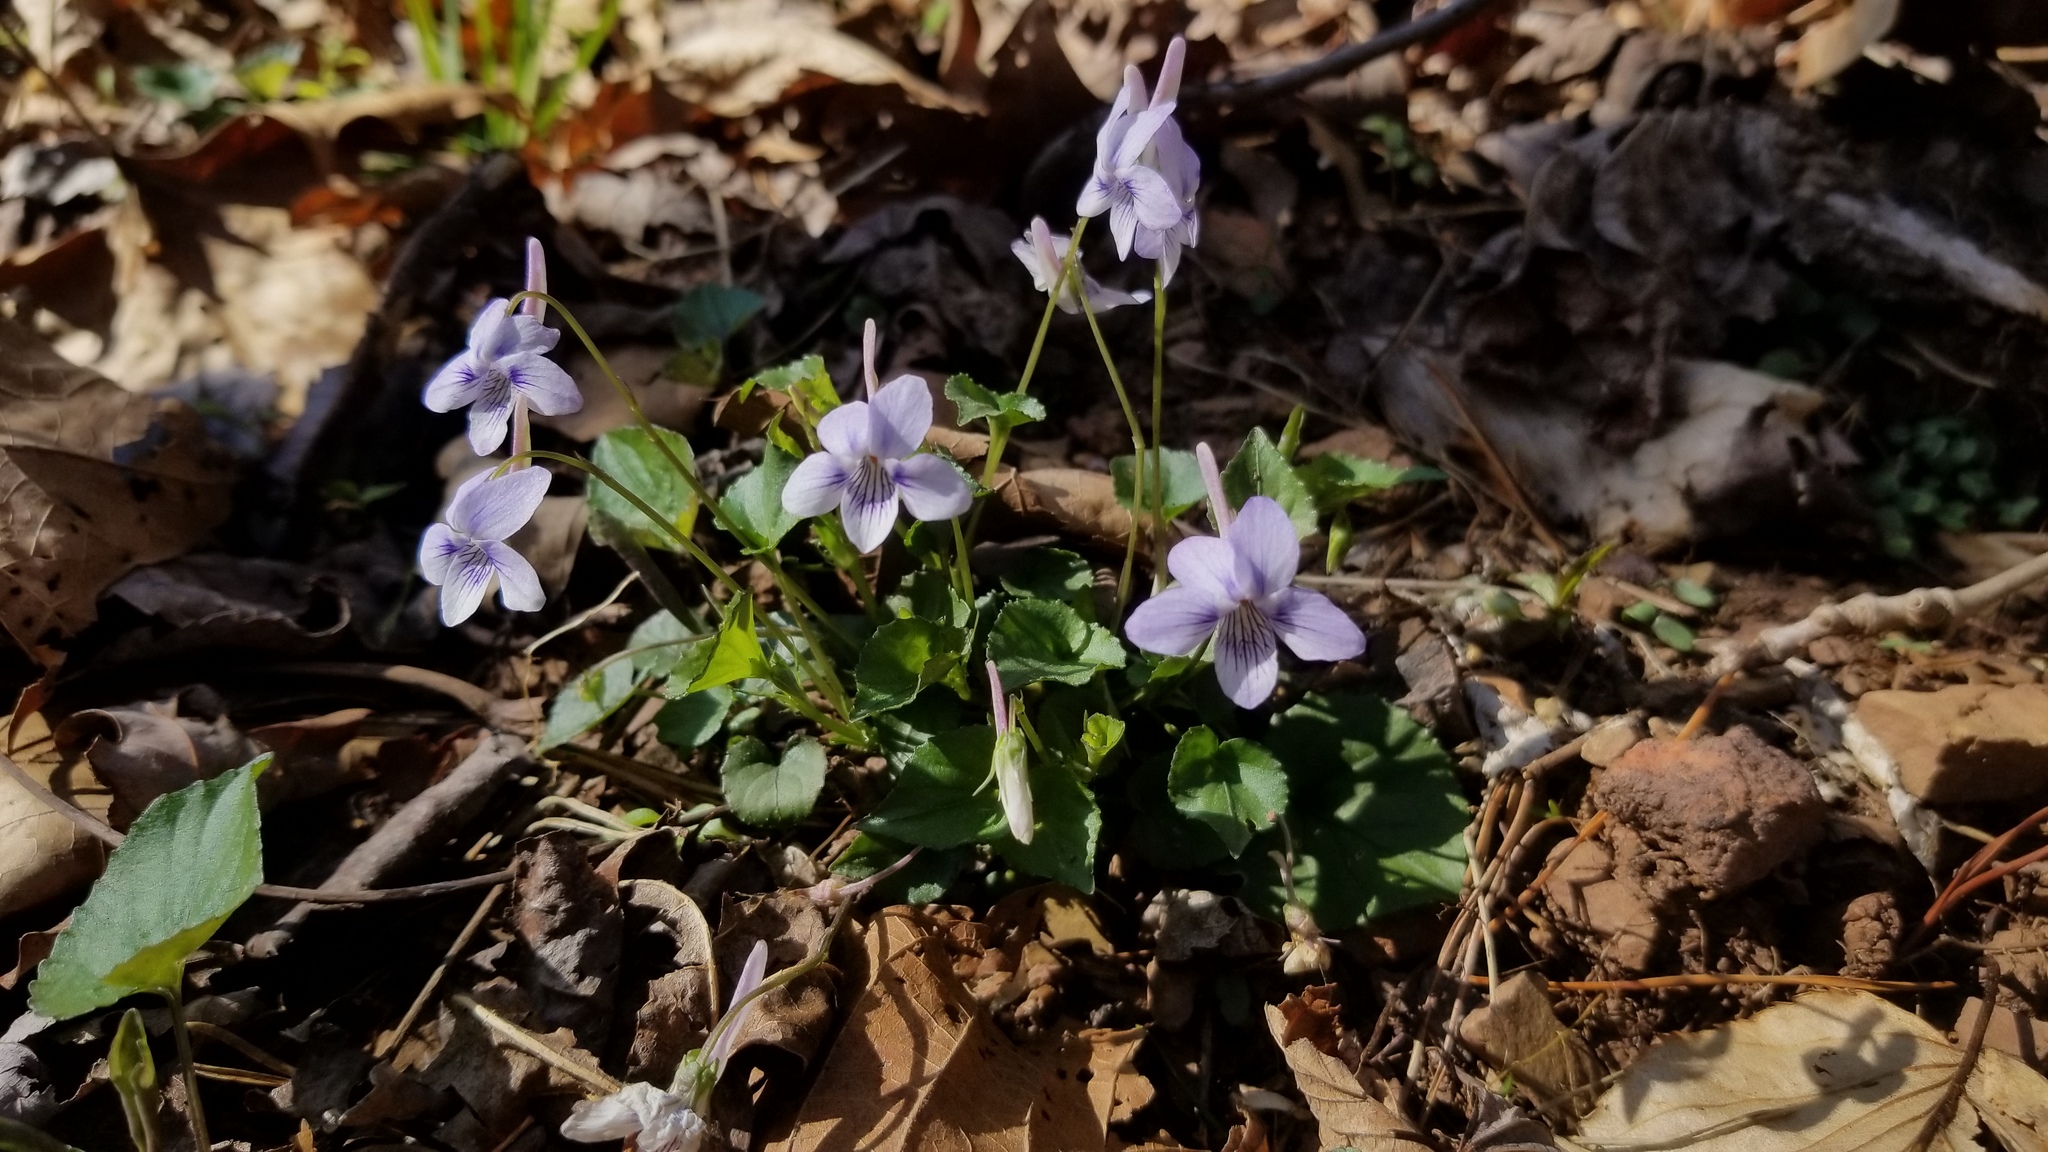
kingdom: Plantae
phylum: Tracheophyta
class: Magnoliopsida
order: Malpighiales
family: Violaceae
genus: Viola
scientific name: Viola rostrata
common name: Long-spur violet
